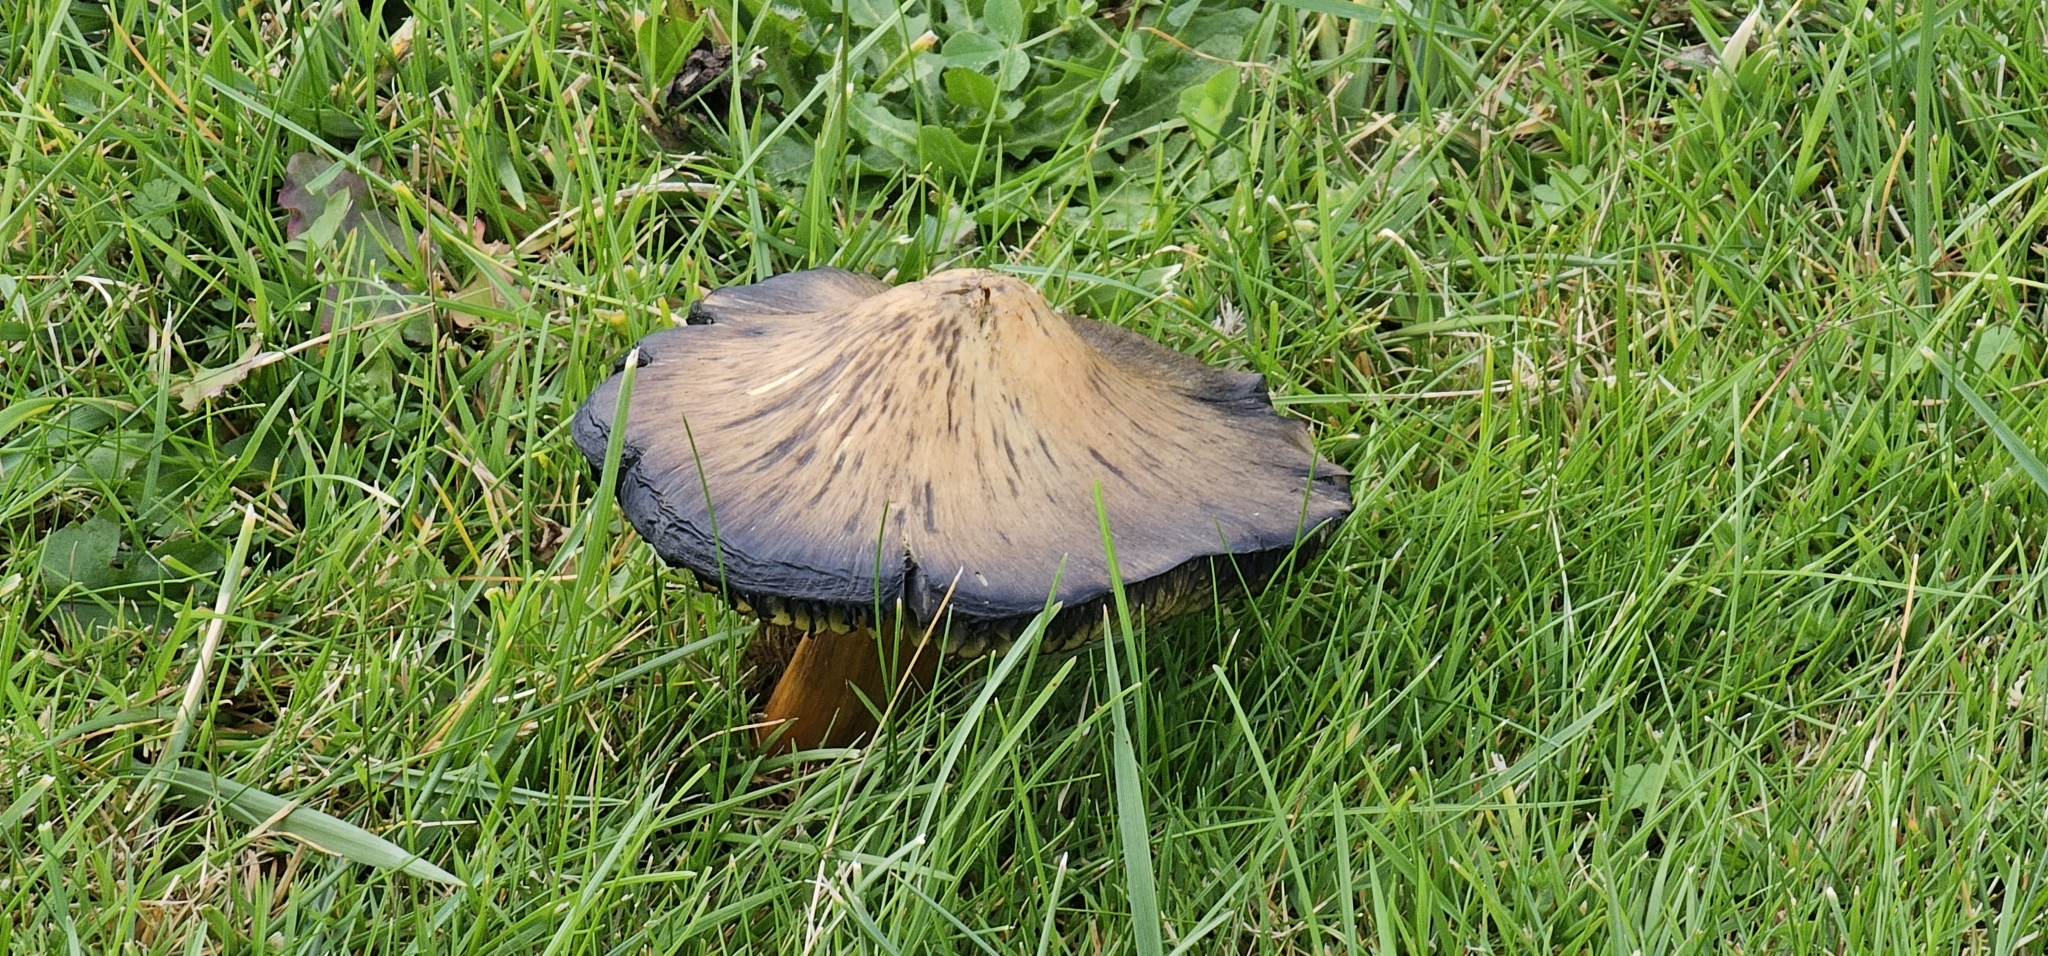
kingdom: Fungi
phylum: Basidiomycota
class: Agaricomycetes
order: Agaricales
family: Hygrophoraceae
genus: Hygrocybe
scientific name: Hygrocybe conica
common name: Blackening wax-cap
